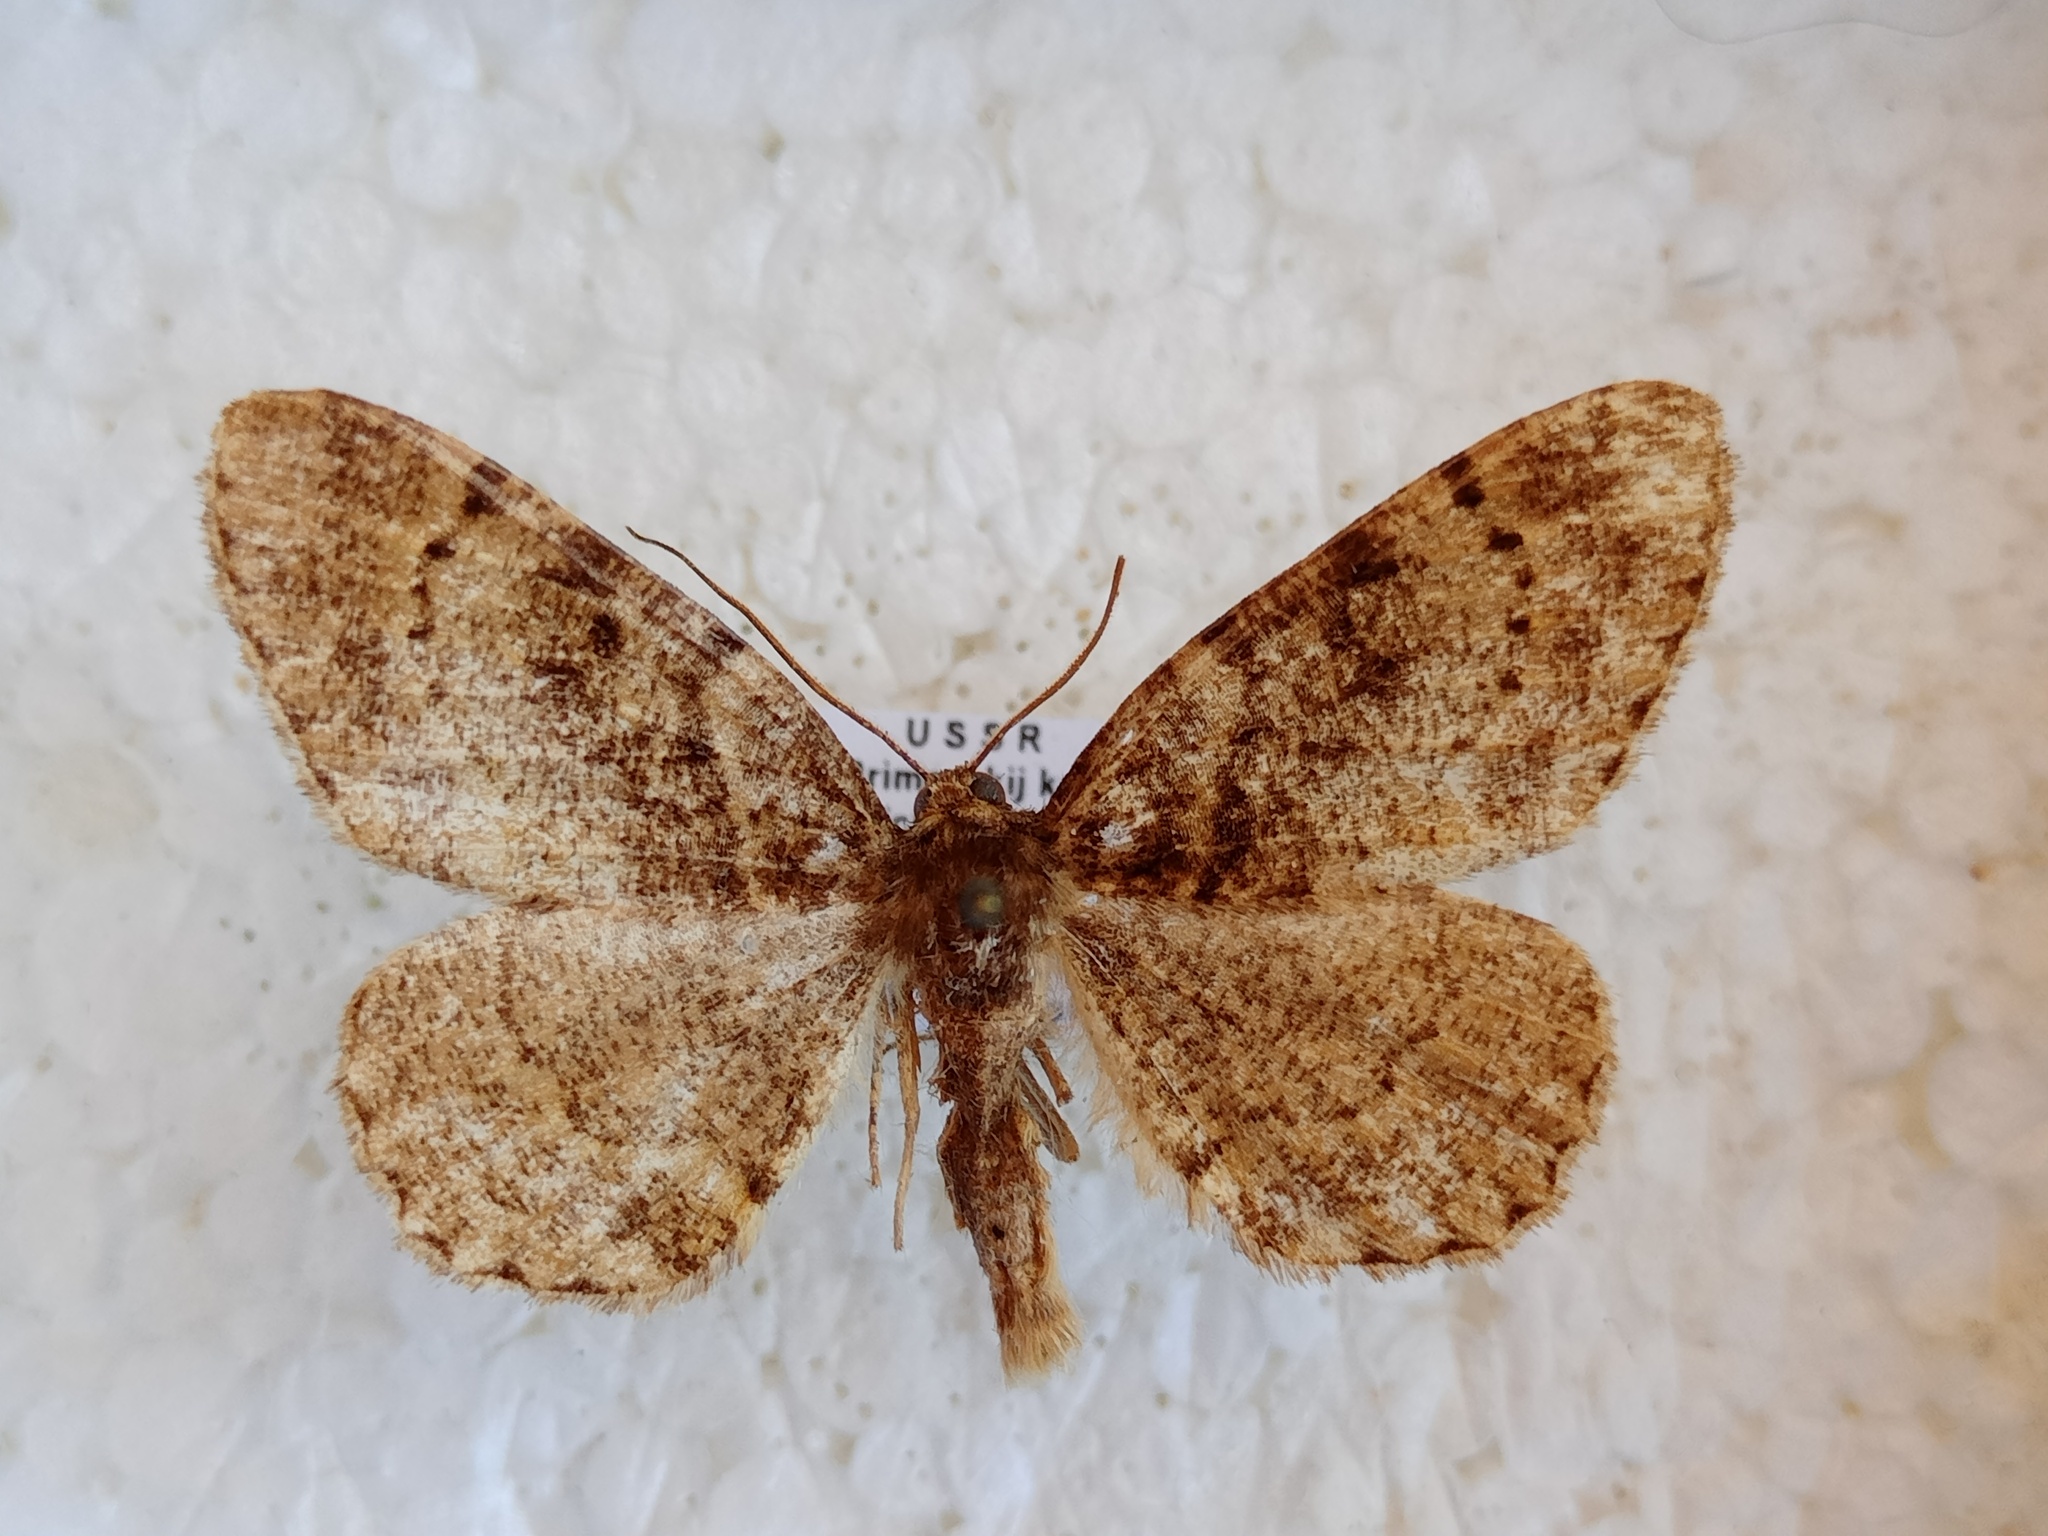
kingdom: Animalia
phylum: Arthropoda
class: Insecta
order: Lepidoptera
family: Geometridae
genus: Parectropis
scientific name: Parectropis nigrosparsa
